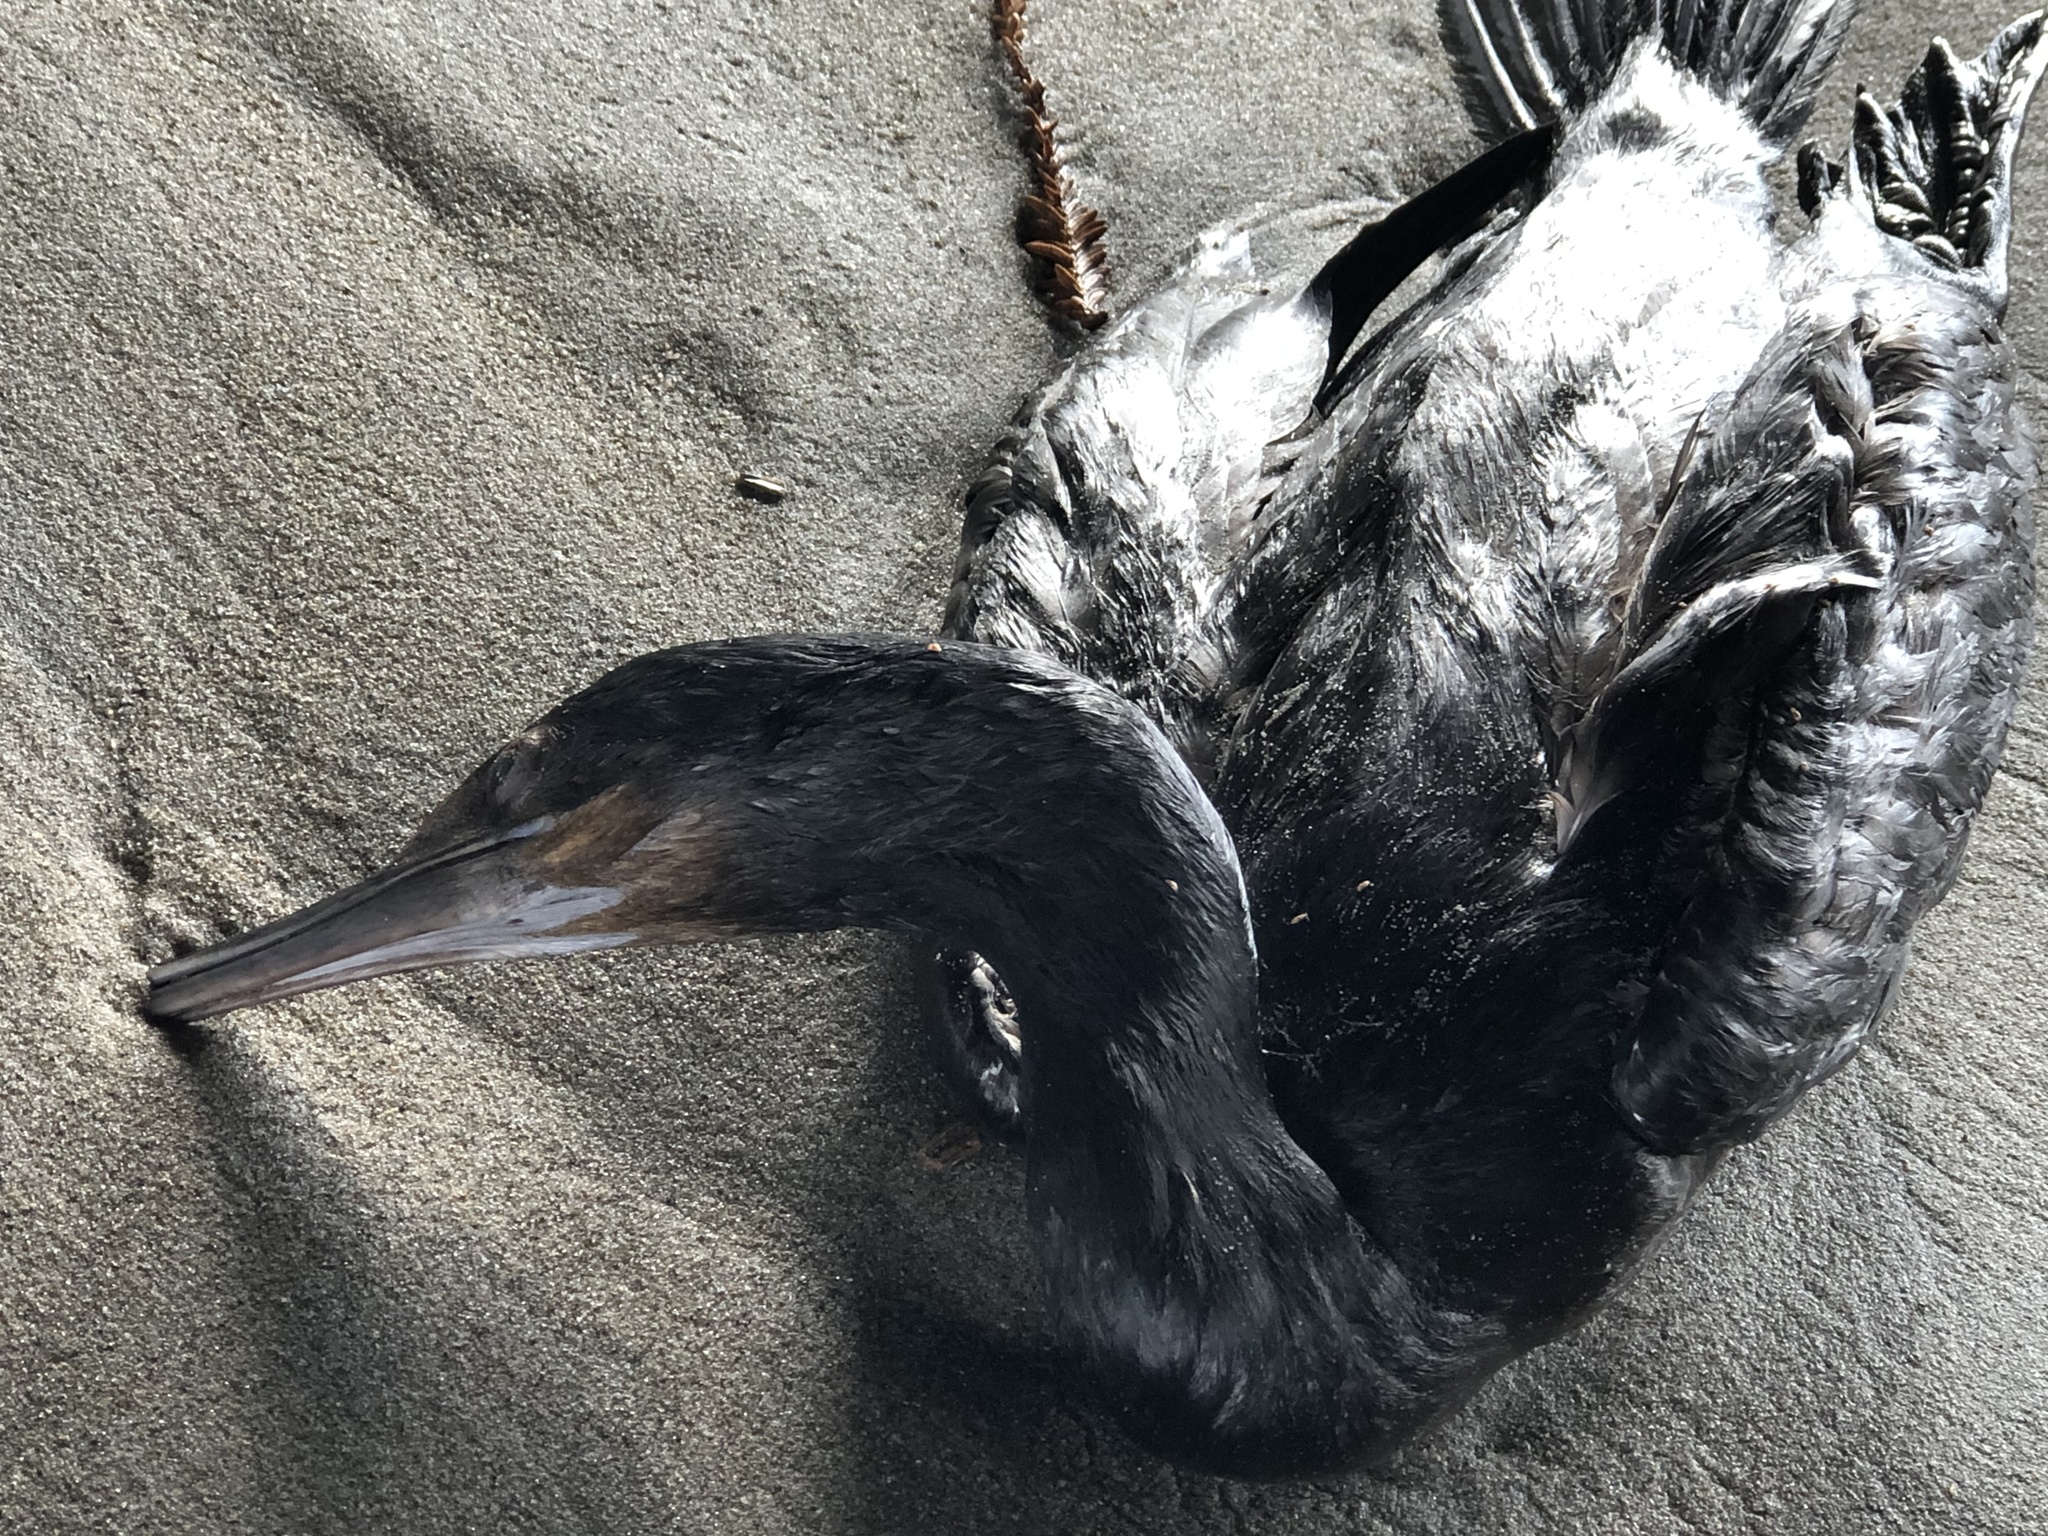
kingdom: Animalia
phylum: Chordata
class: Aves
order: Suliformes
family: Phalacrocoracidae
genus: Urile
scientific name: Urile penicillatus
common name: Brandt's cormorant
